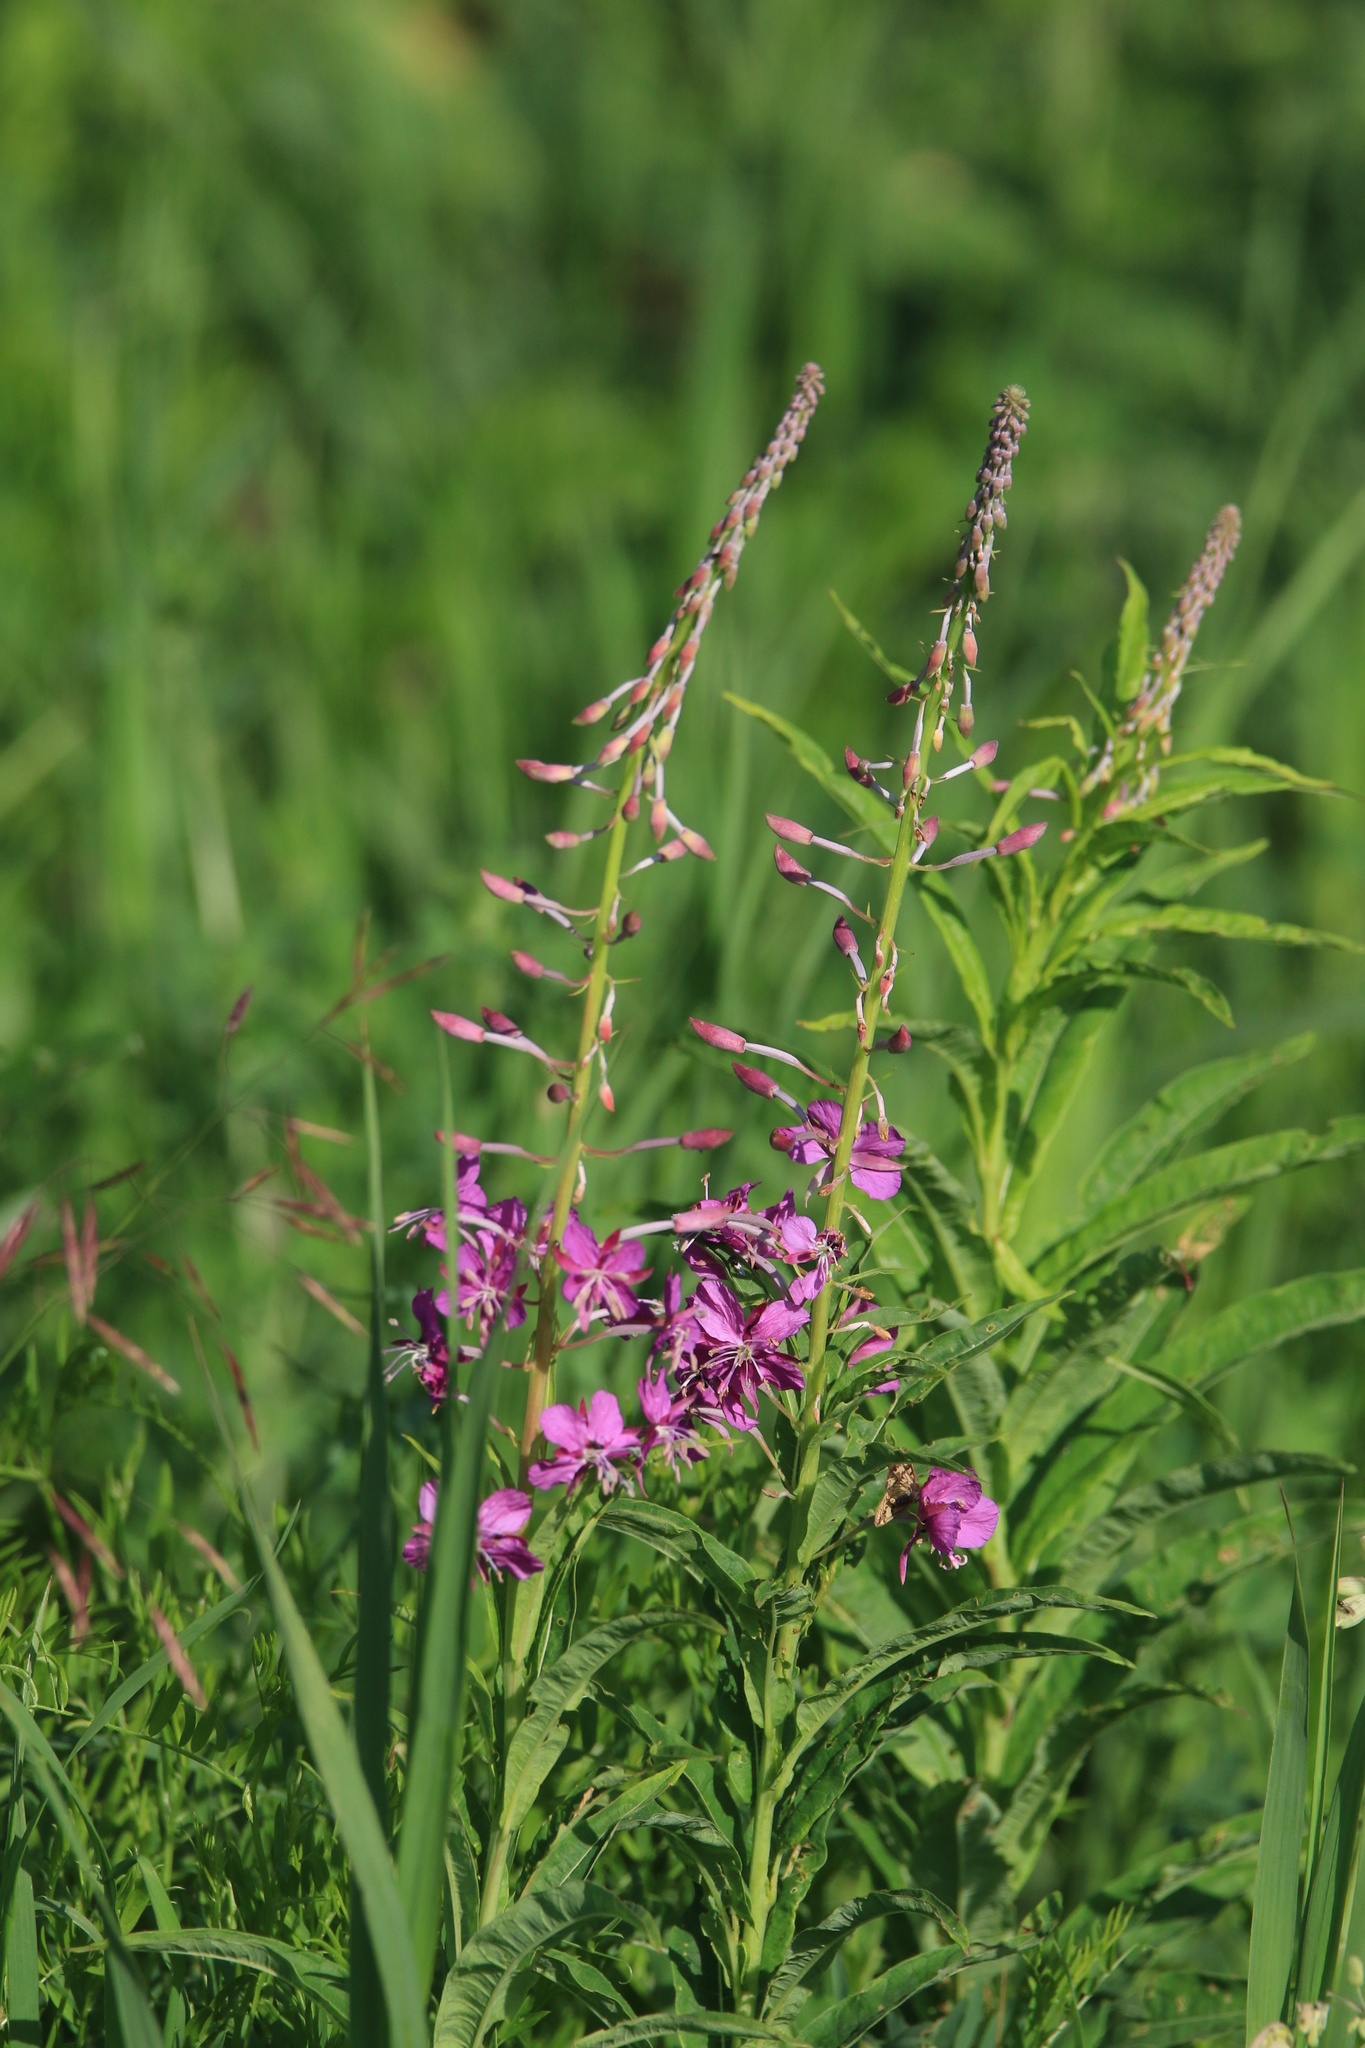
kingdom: Plantae
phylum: Tracheophyta
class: Magnoliopsida
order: Myrtales
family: Onagraceae
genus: Chamaenerion
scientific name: Chamaenerion angustifolium
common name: Fireweed
